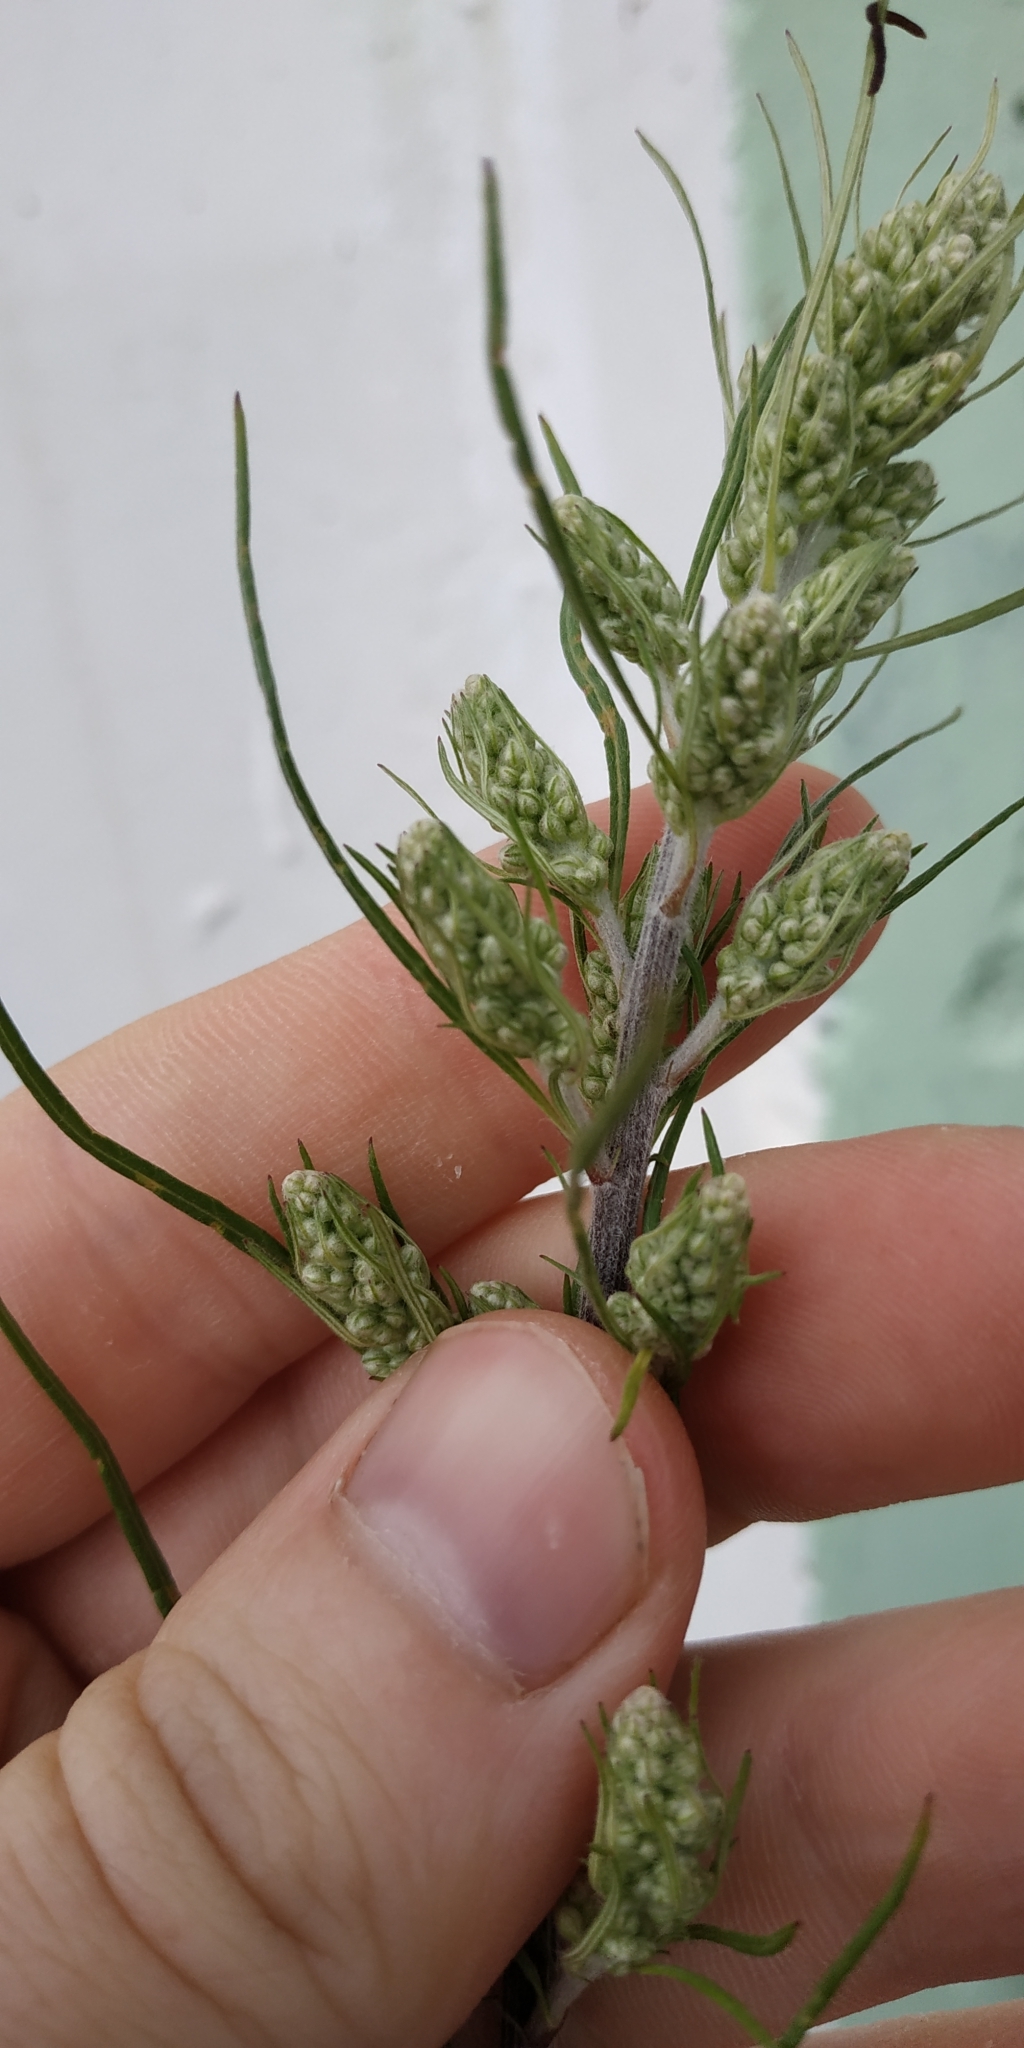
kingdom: Plantae
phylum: Tracheophyta
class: Magnoliopsida
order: Asterales
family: Asteraceae
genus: Artemisia
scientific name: Artemisia vulgaris
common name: Mugwort
